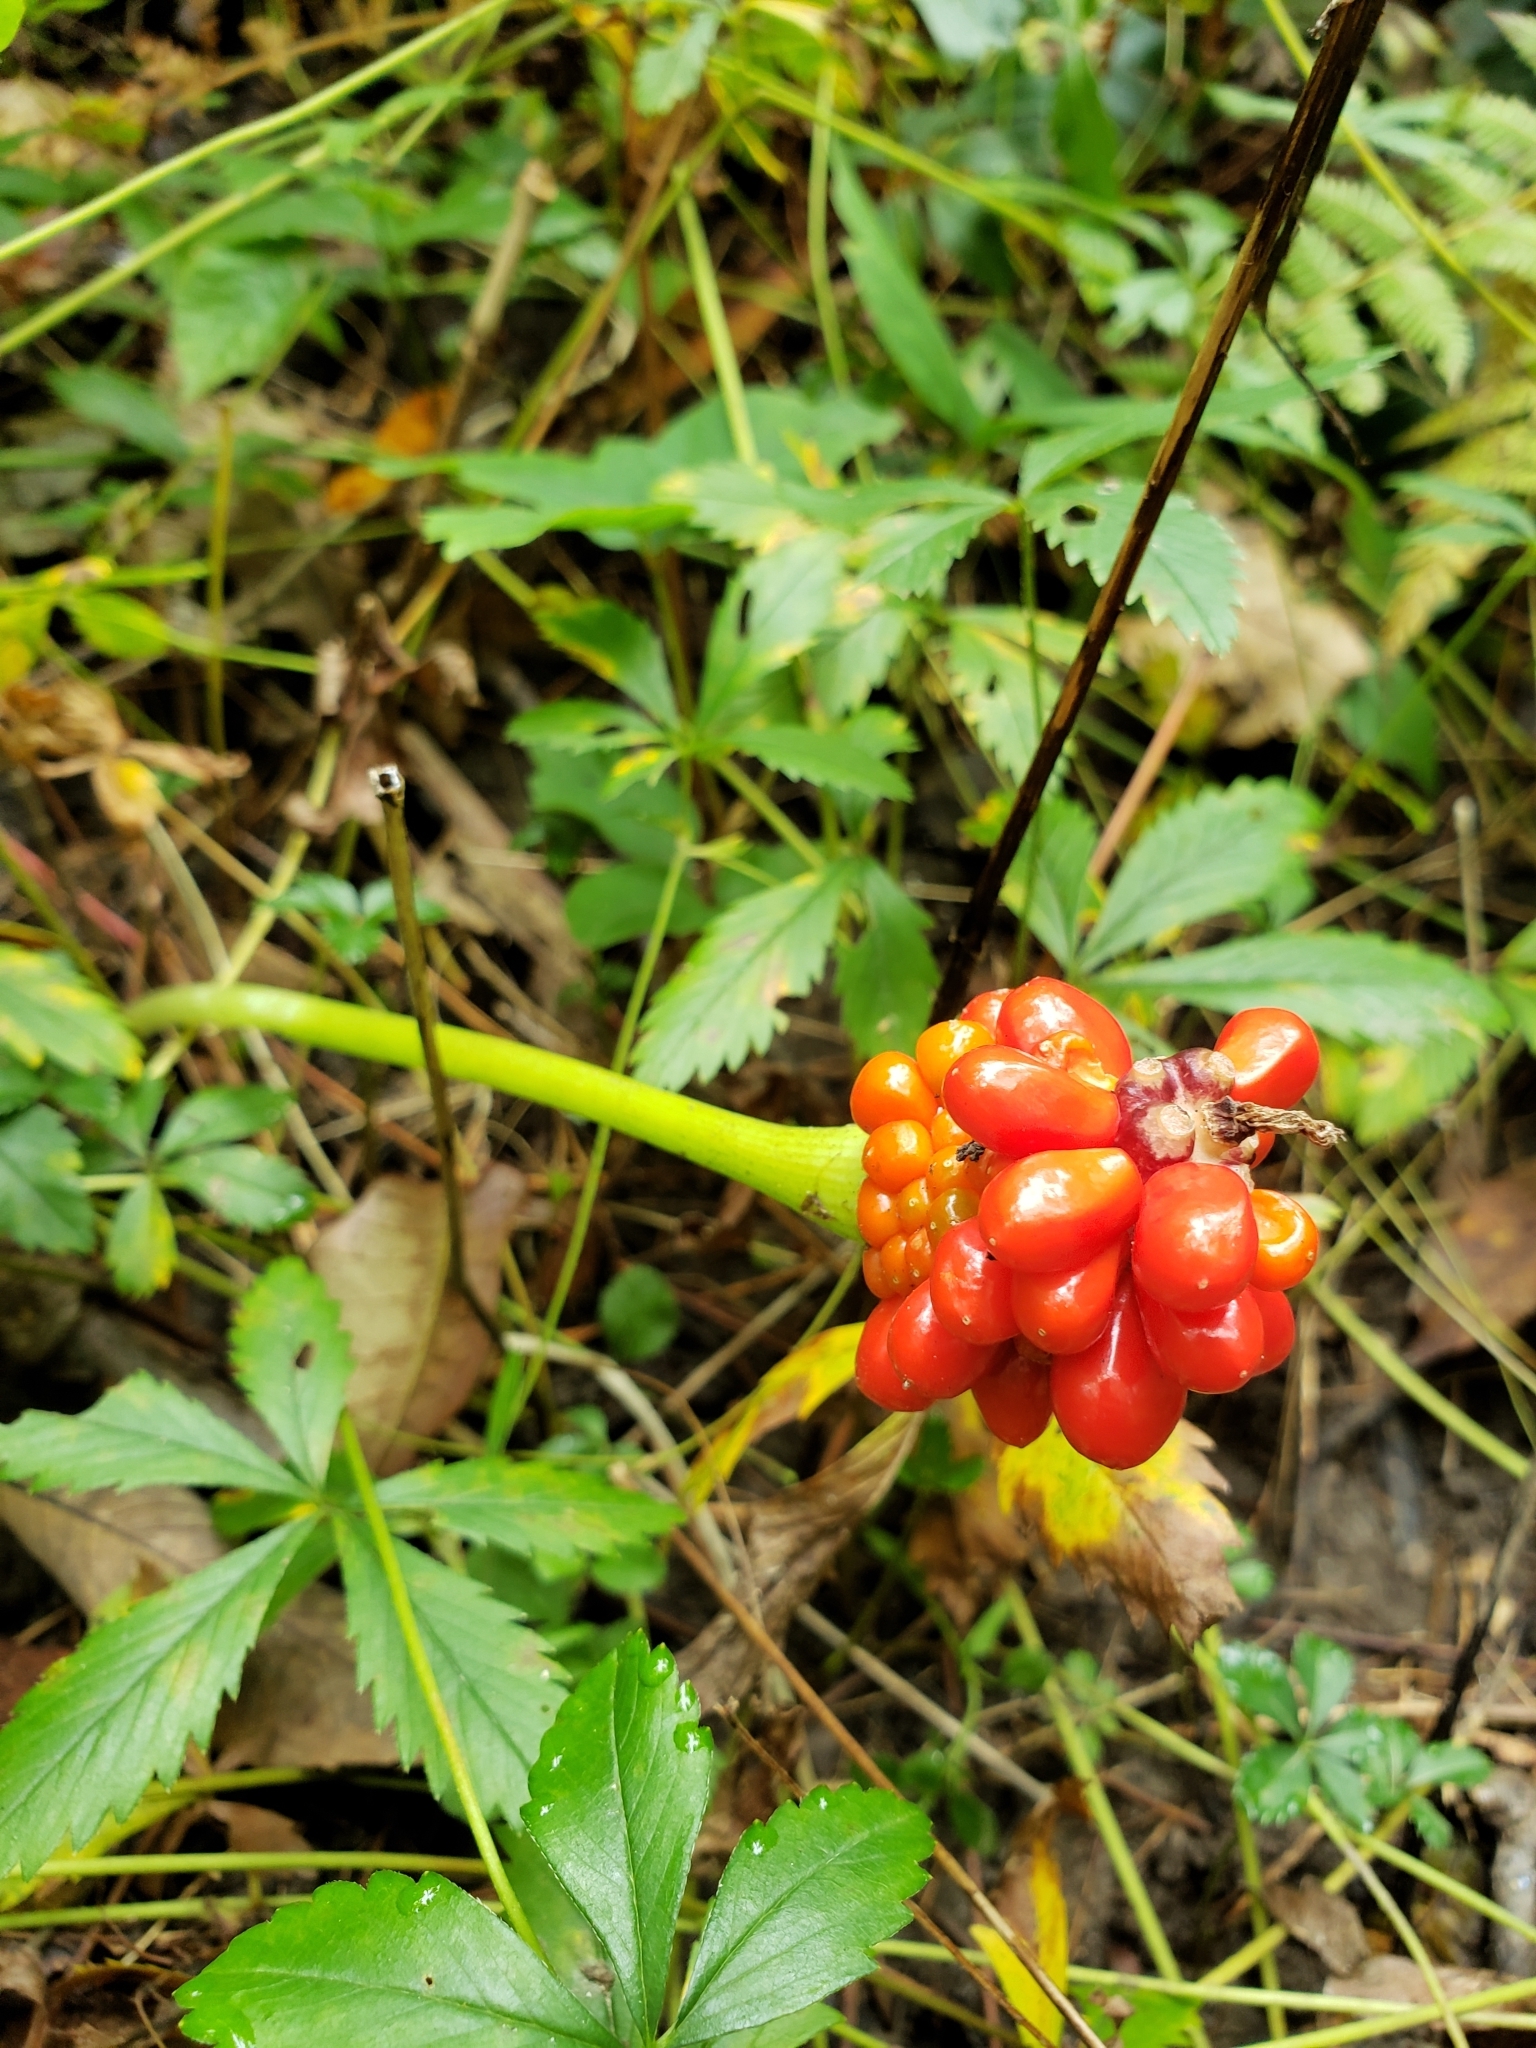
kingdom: Plantae
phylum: Tracheophyta
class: Liliopsida
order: Alismatales
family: Araceae
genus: Arisaema
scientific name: Arisaema triphyllum
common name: Jack-in-the-pulpit
